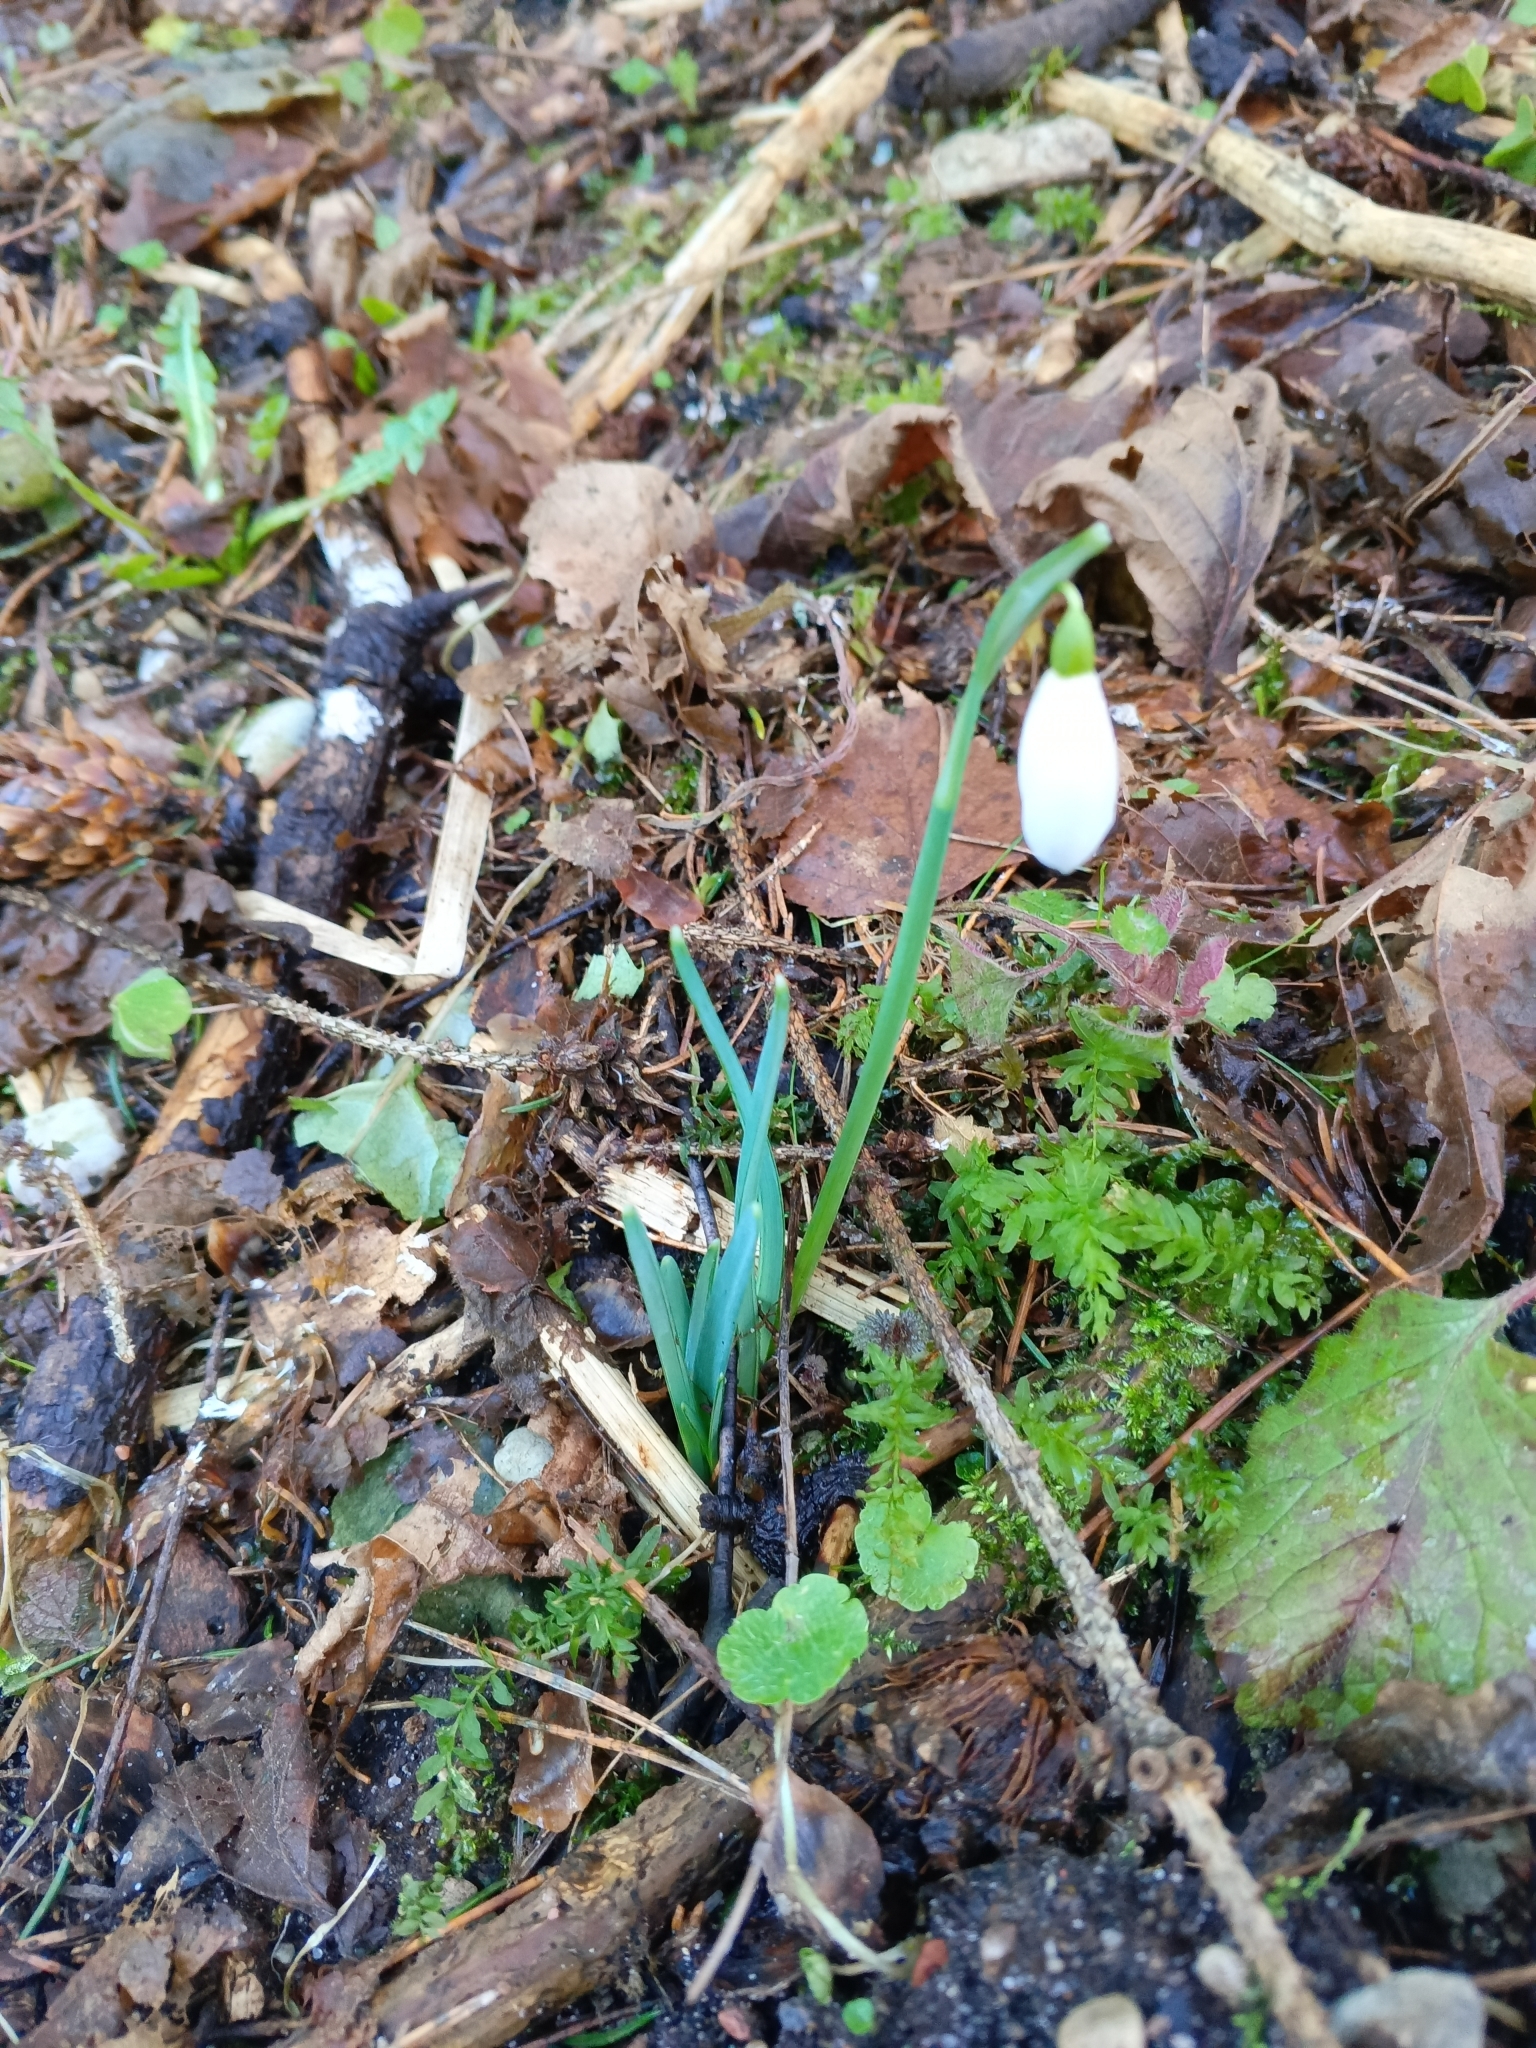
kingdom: Plantae
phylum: Tracheophyta
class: Liliopsida
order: Asparagales
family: Amaryllidaceae
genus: Galanthus
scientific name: Galanthus nivalis
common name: Snowdrop
